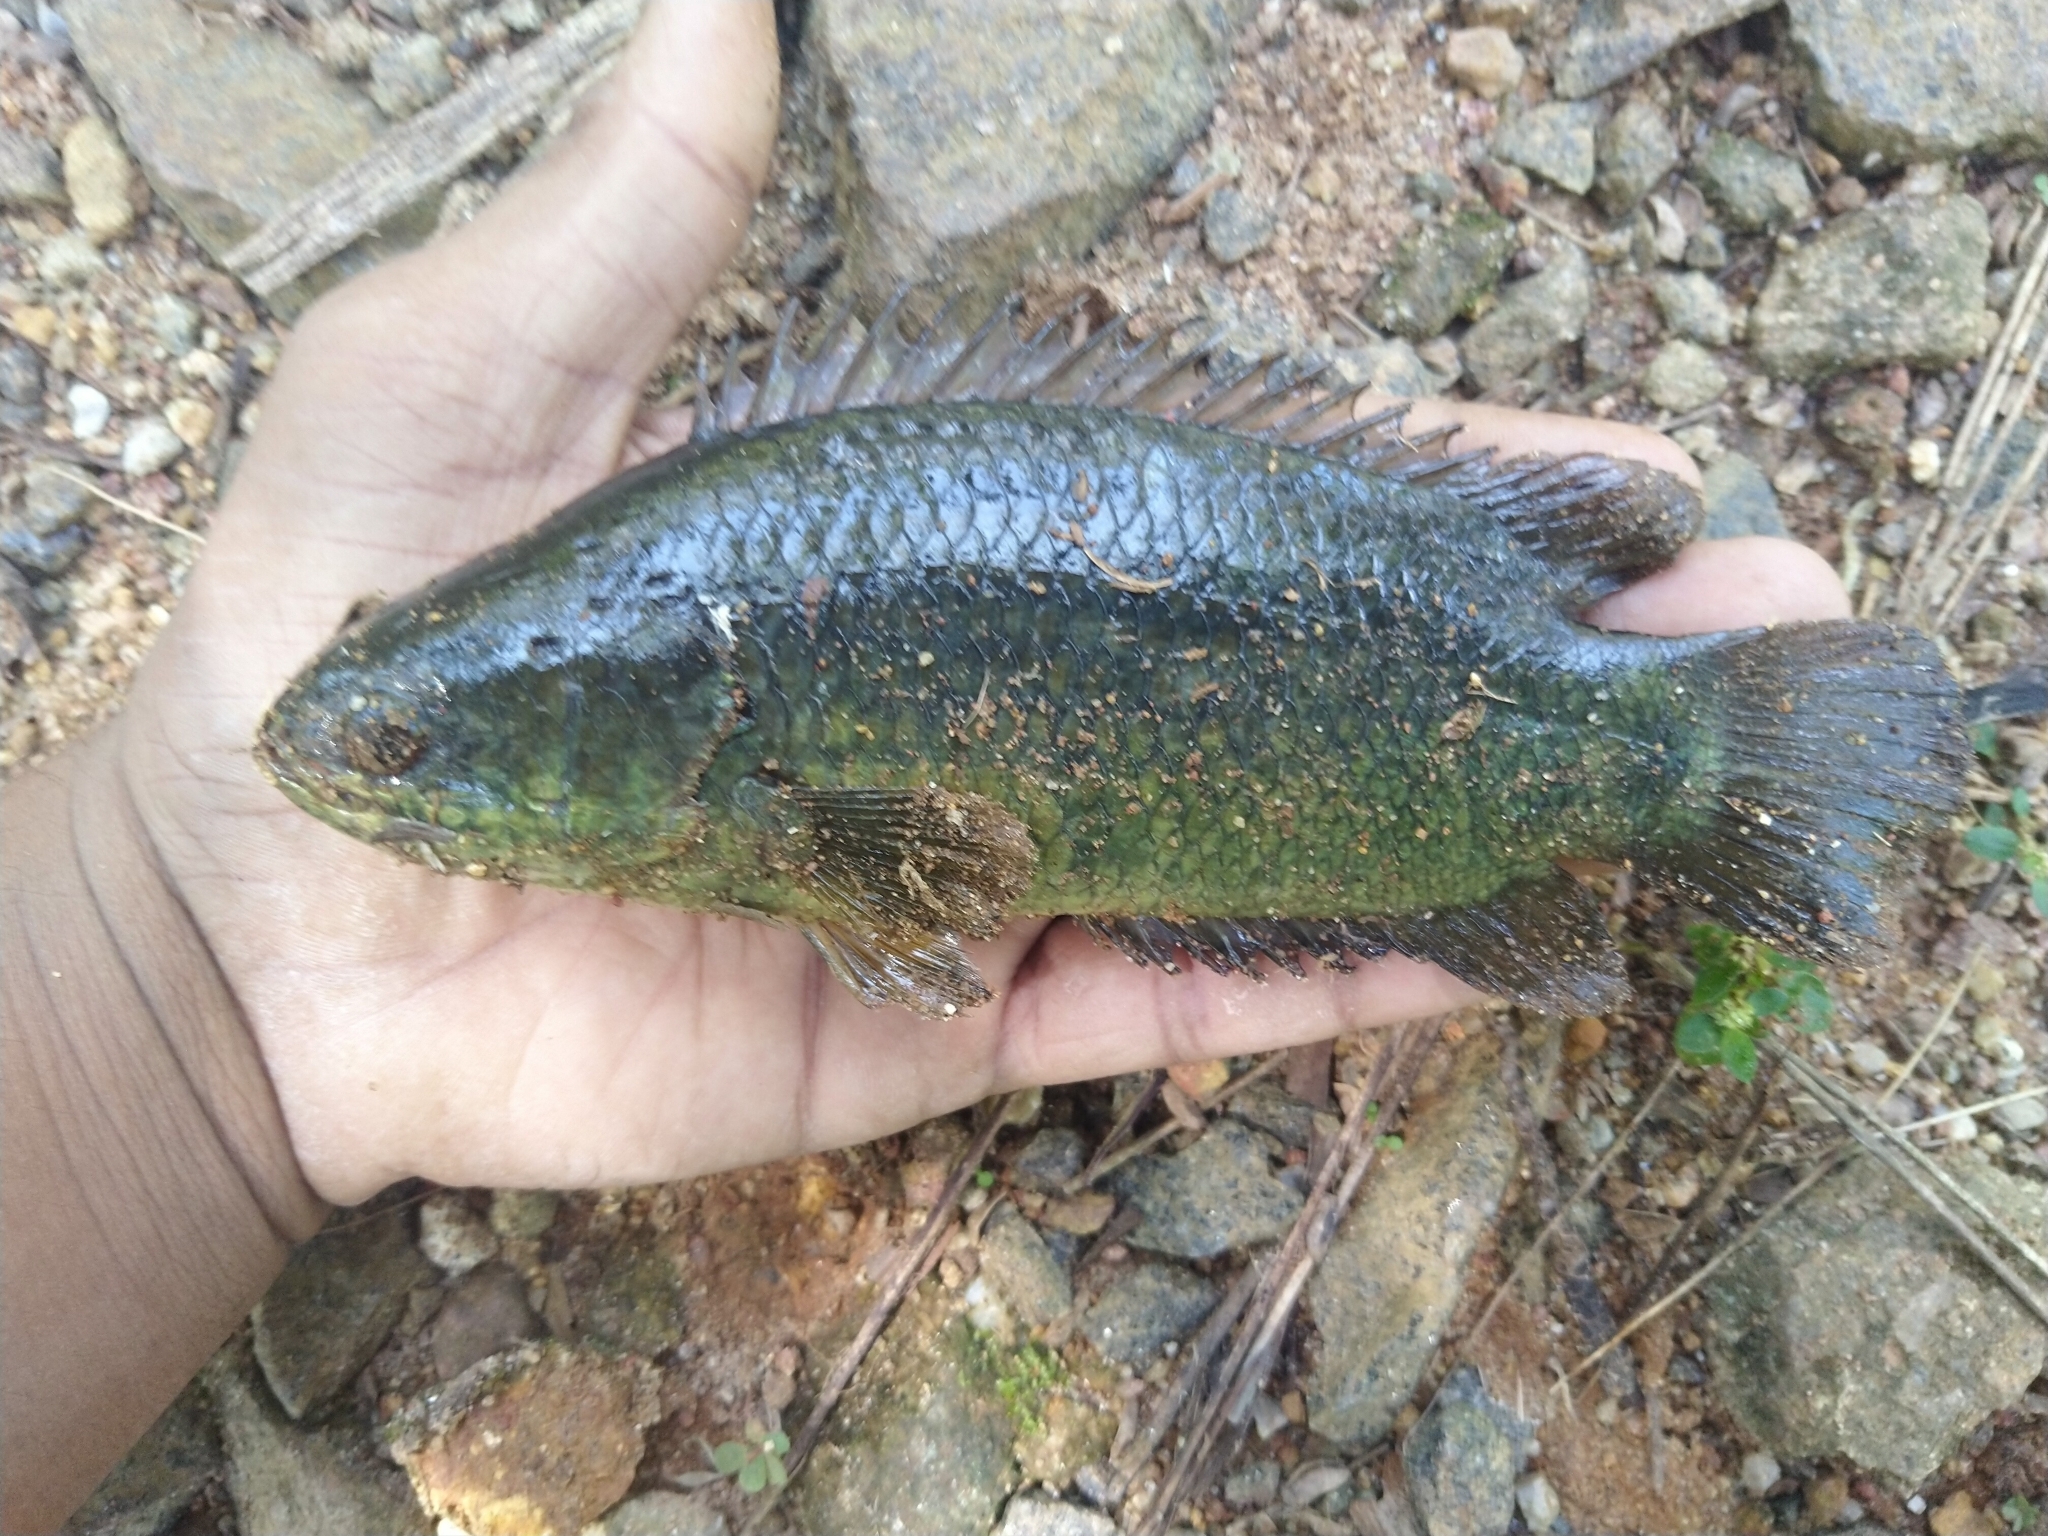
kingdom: Animalia
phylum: Chordata
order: Perciformes
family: Anabantidae
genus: Anabas
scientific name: Anabas testudineus
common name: Climbing perch
